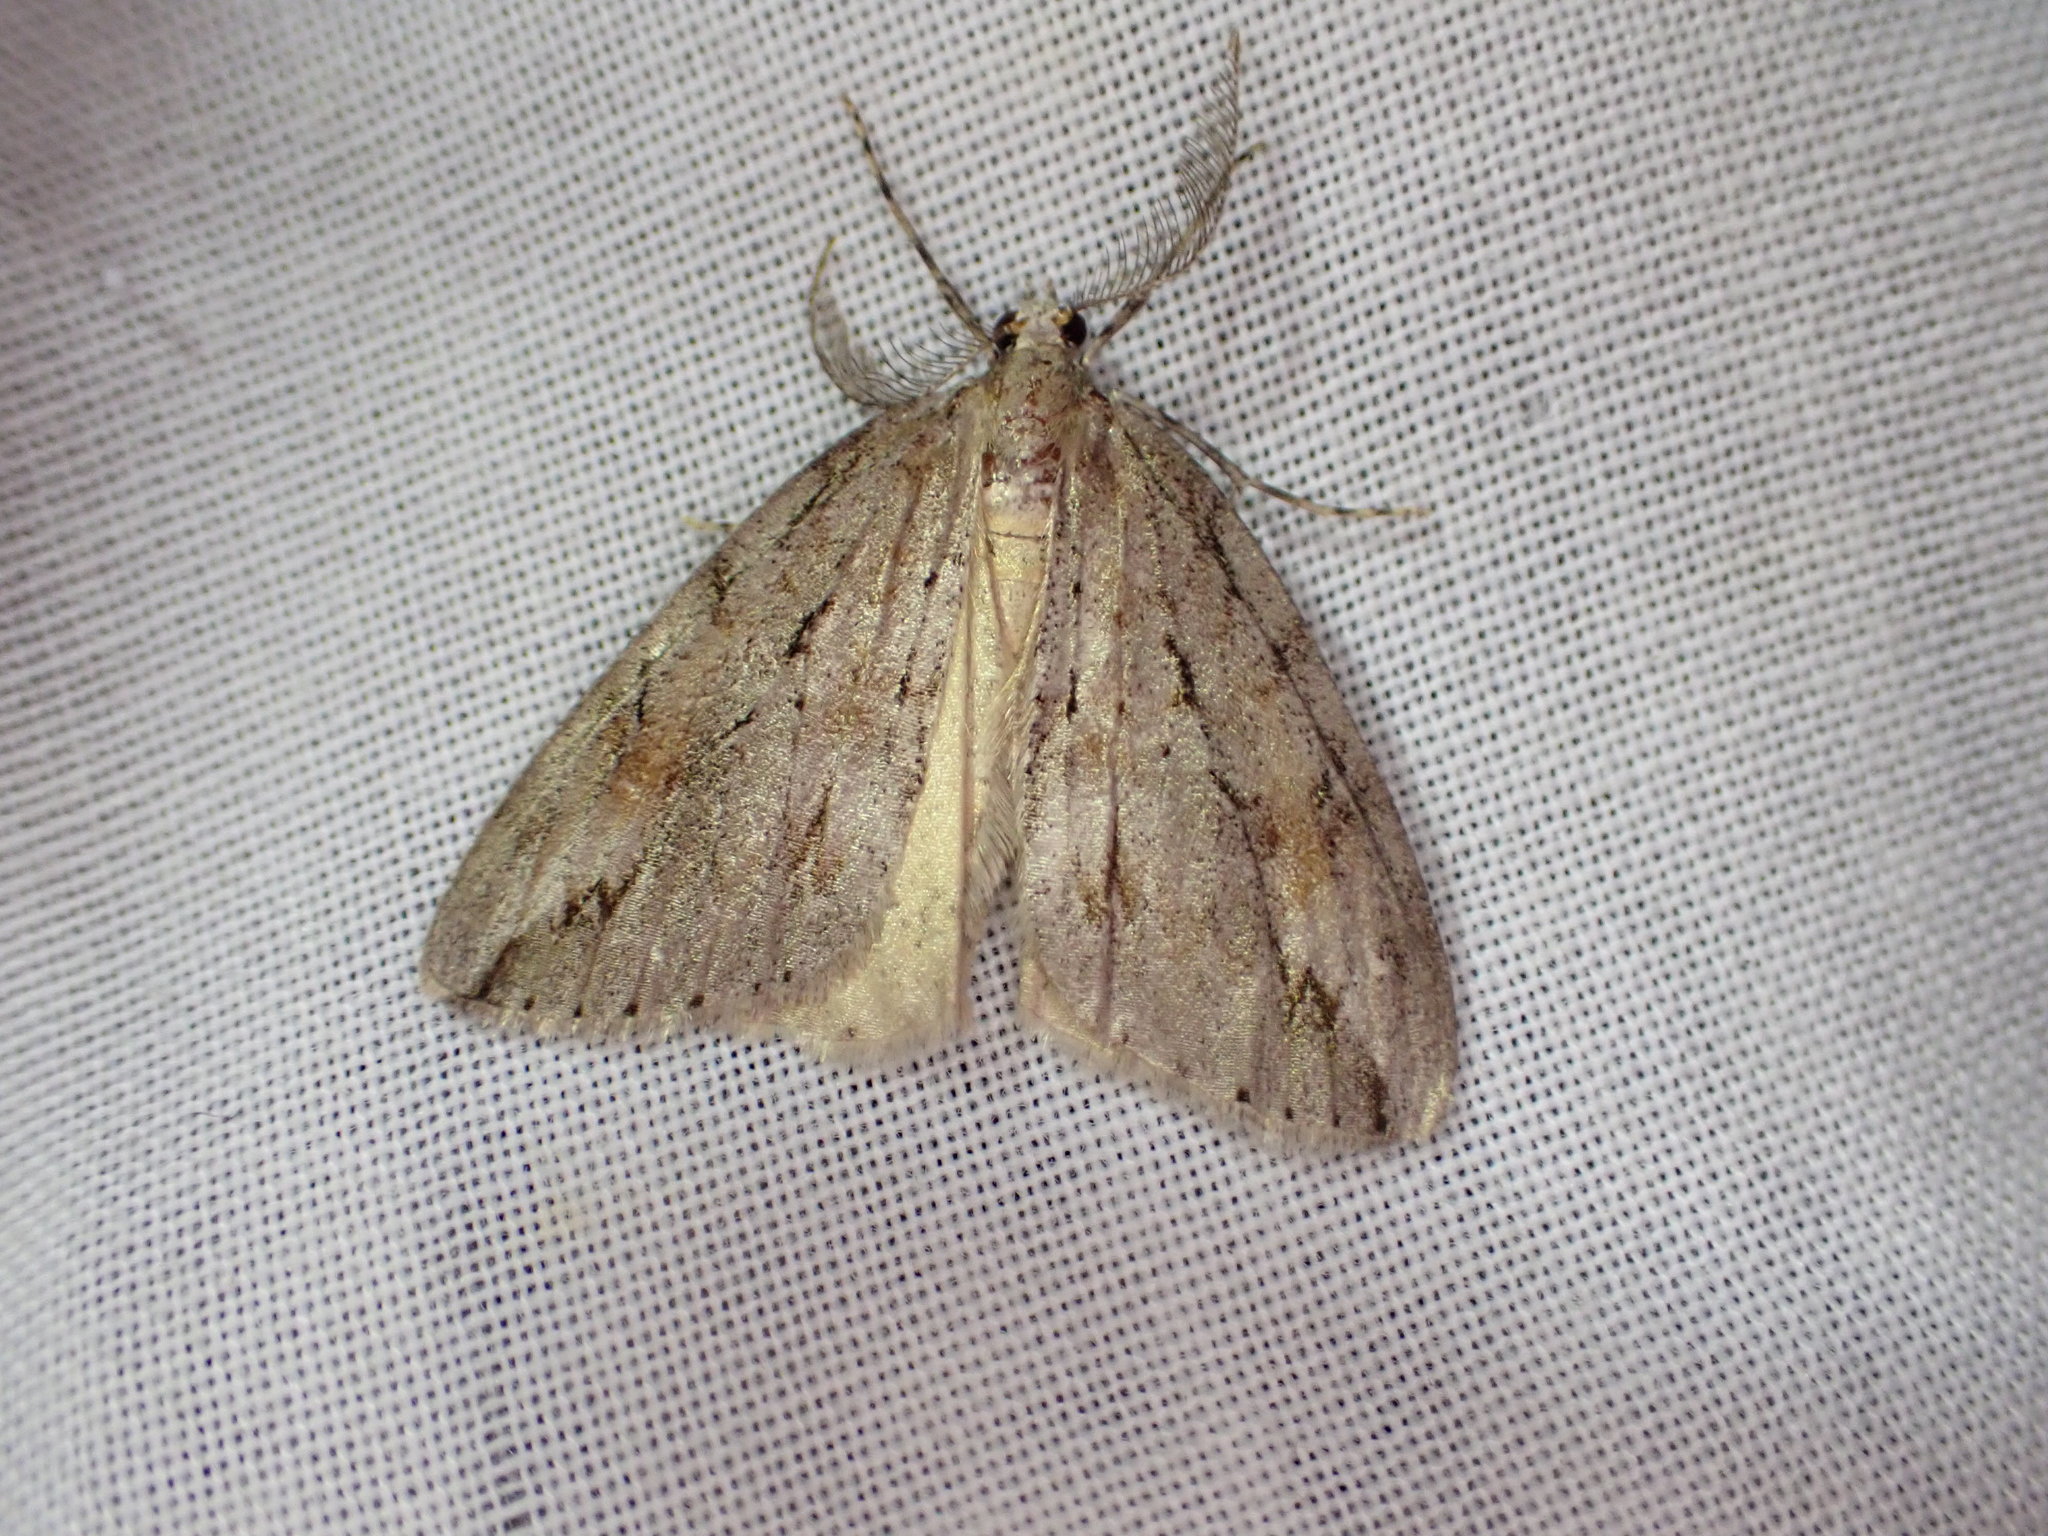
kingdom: Animalia
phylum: Arthropoda
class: Insecta
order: Lepidoptera
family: Geometridae
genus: Pseudocoremia
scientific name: Pseudocoremia lupinata
